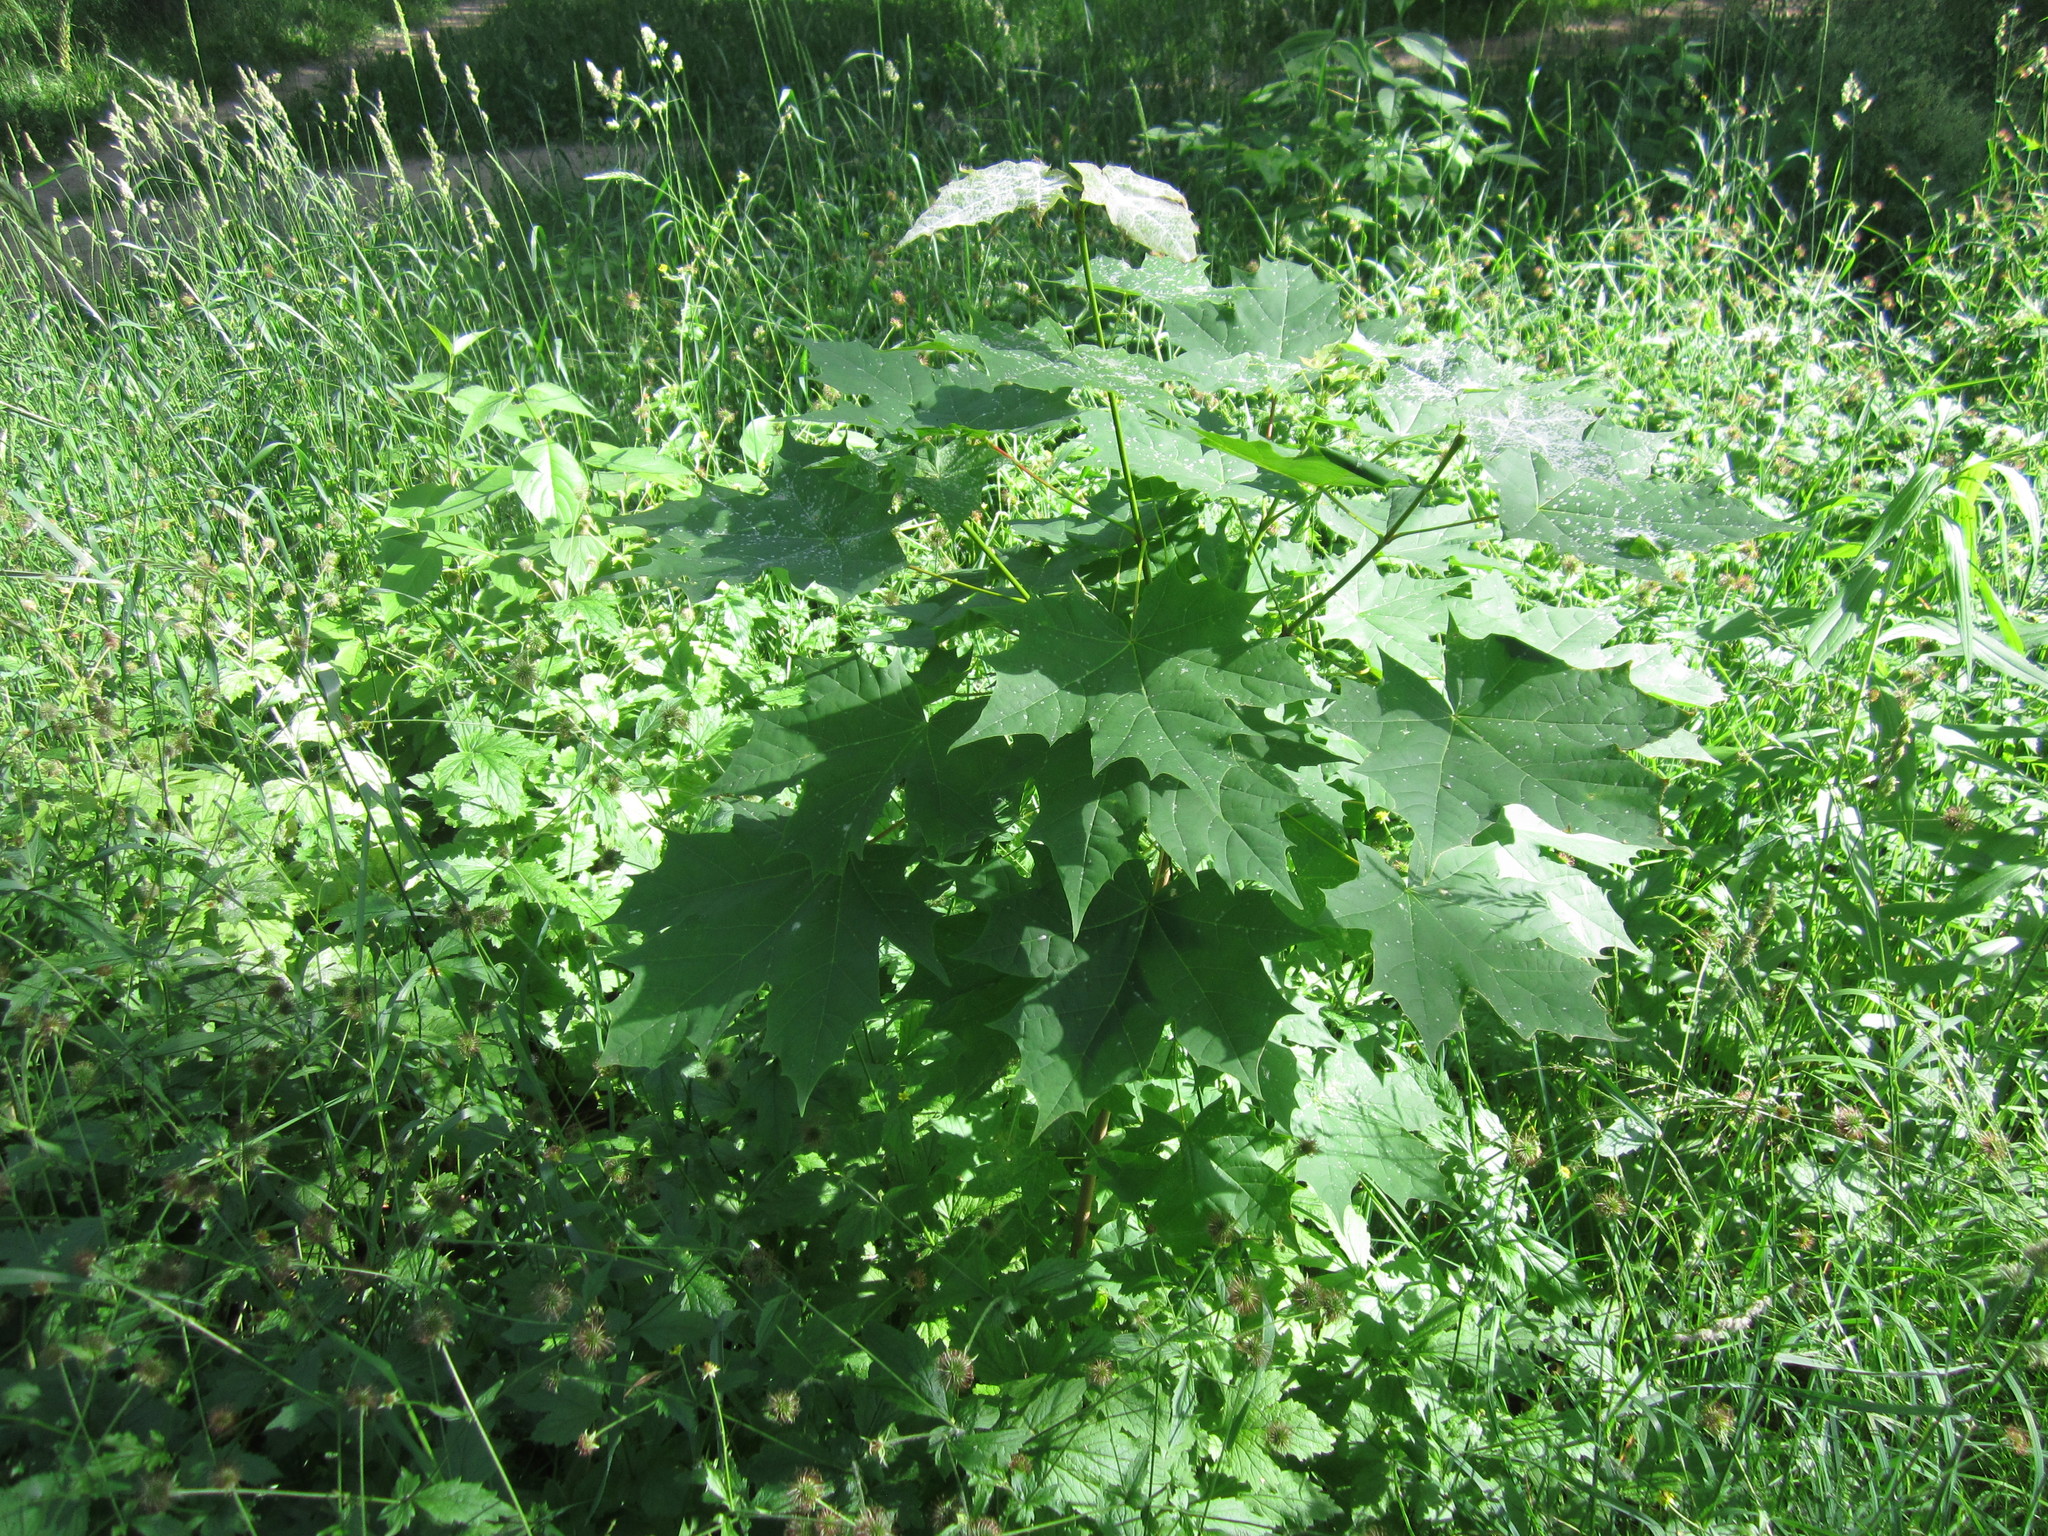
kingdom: Plantae
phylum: Tracheophyta
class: Magnoliopsida
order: Sapindales
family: Sapindaceae
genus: Acer
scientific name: Acer platanoides
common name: Norway maple
